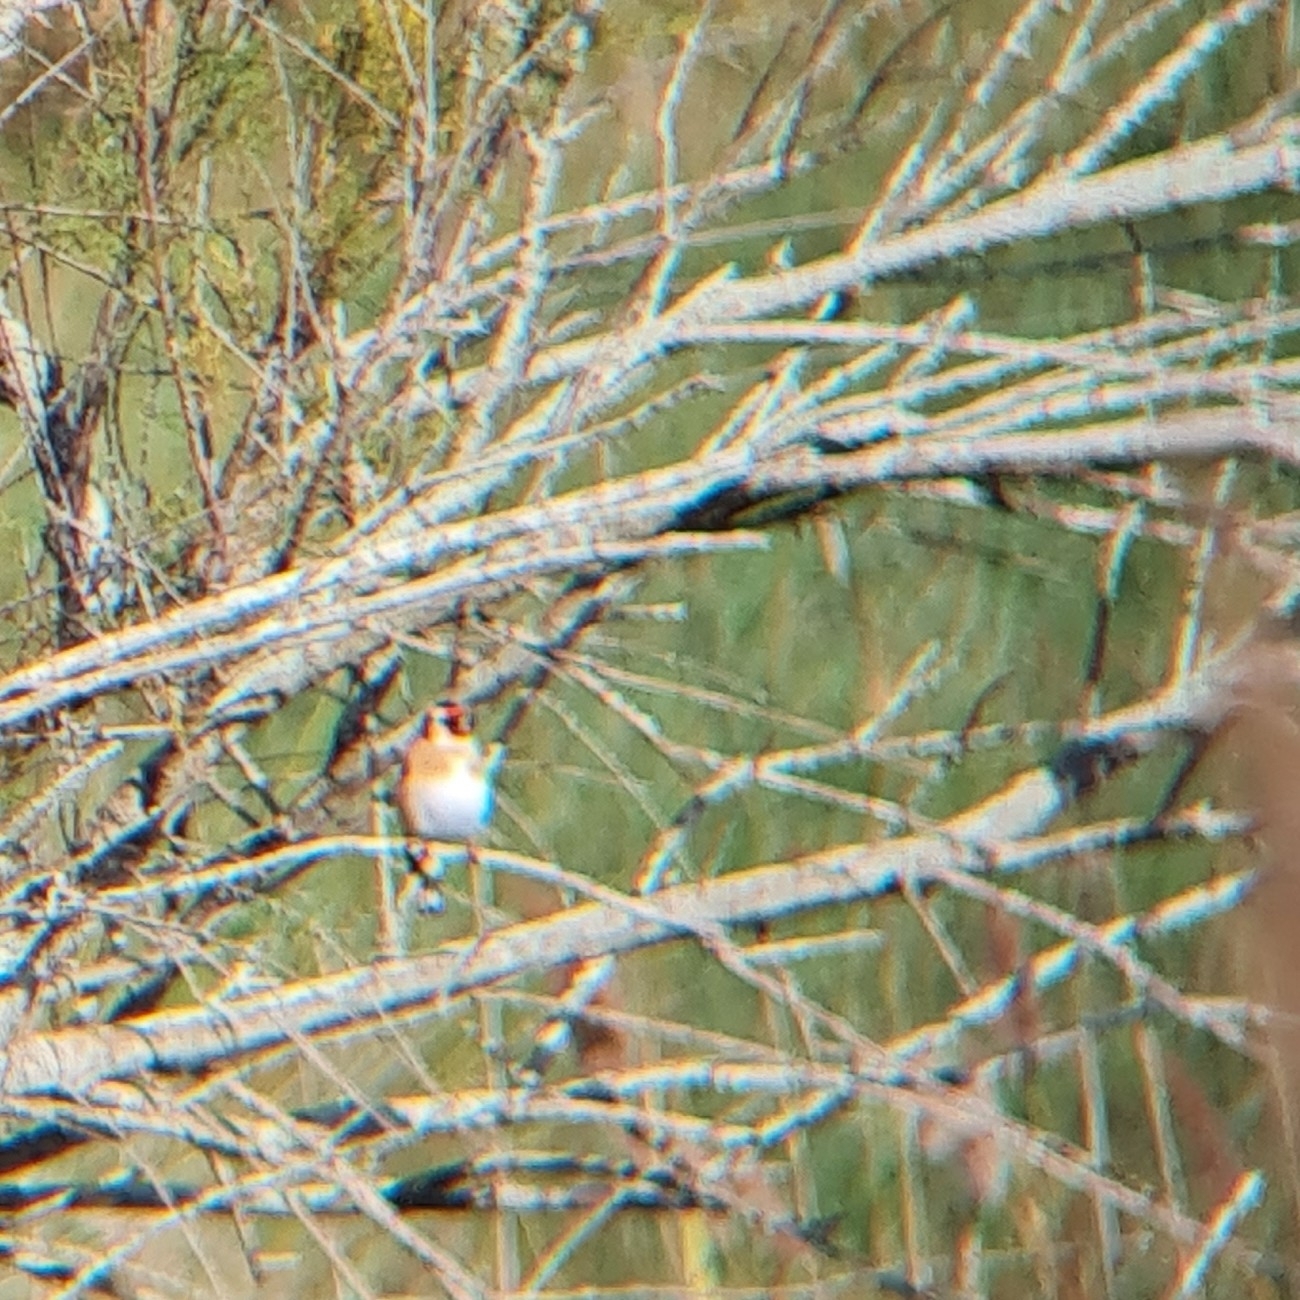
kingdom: Animalia
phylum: Chordata
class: Aves
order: Passeriformes
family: Fringillidae
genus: Carduelis
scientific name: Carduelis carduelis
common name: European goldfinch
